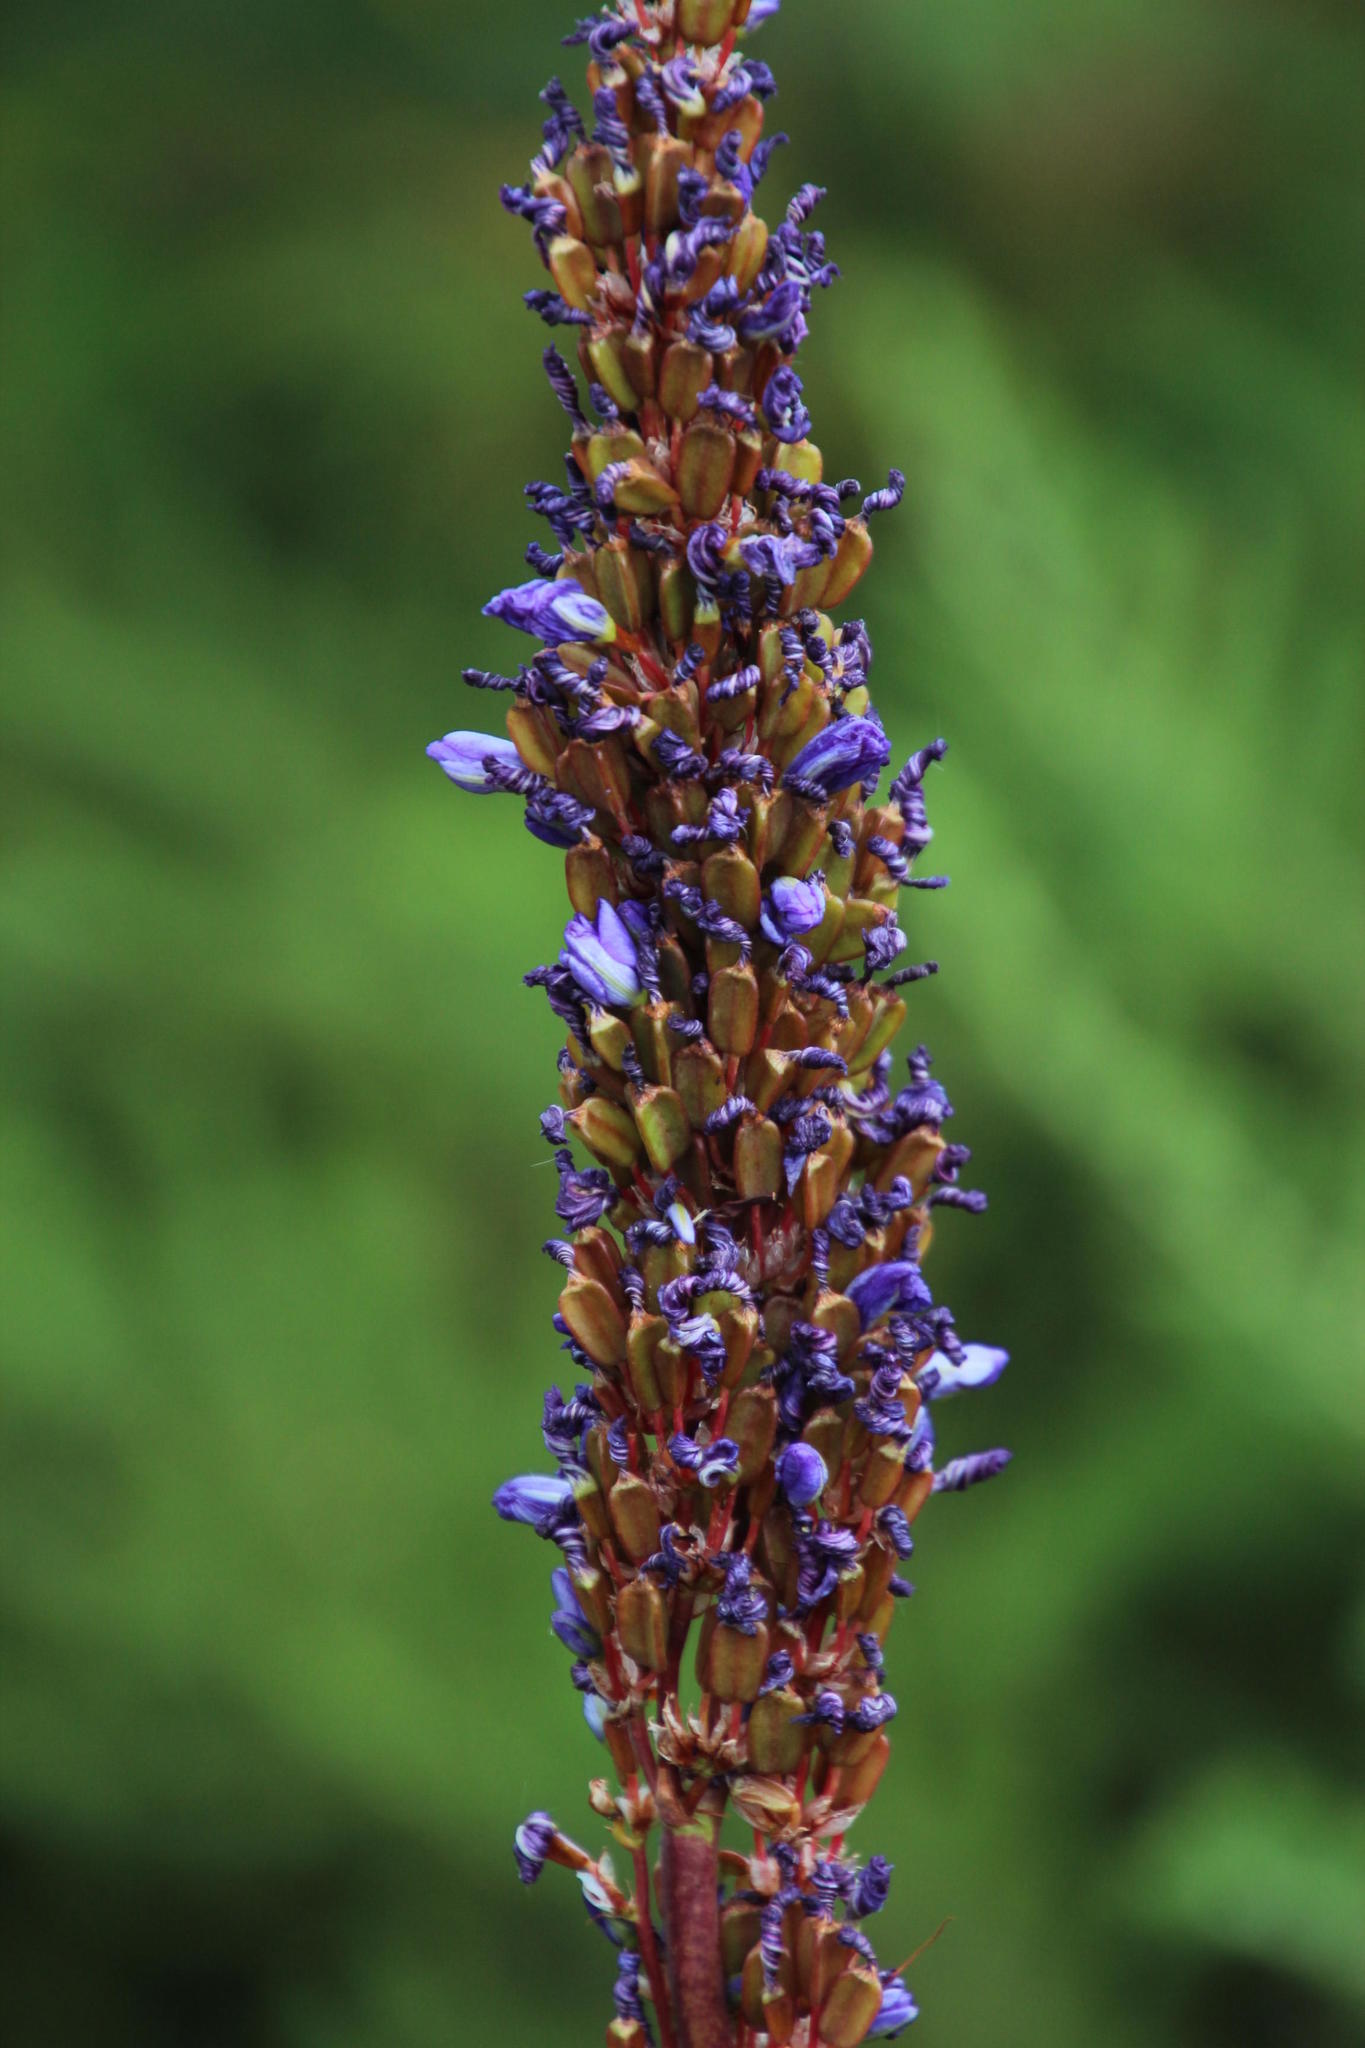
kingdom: Plantae
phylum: Tracheophyta
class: Liliopsida
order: Asparagales
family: Iridaceae
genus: Aristea
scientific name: Aristea capitata
